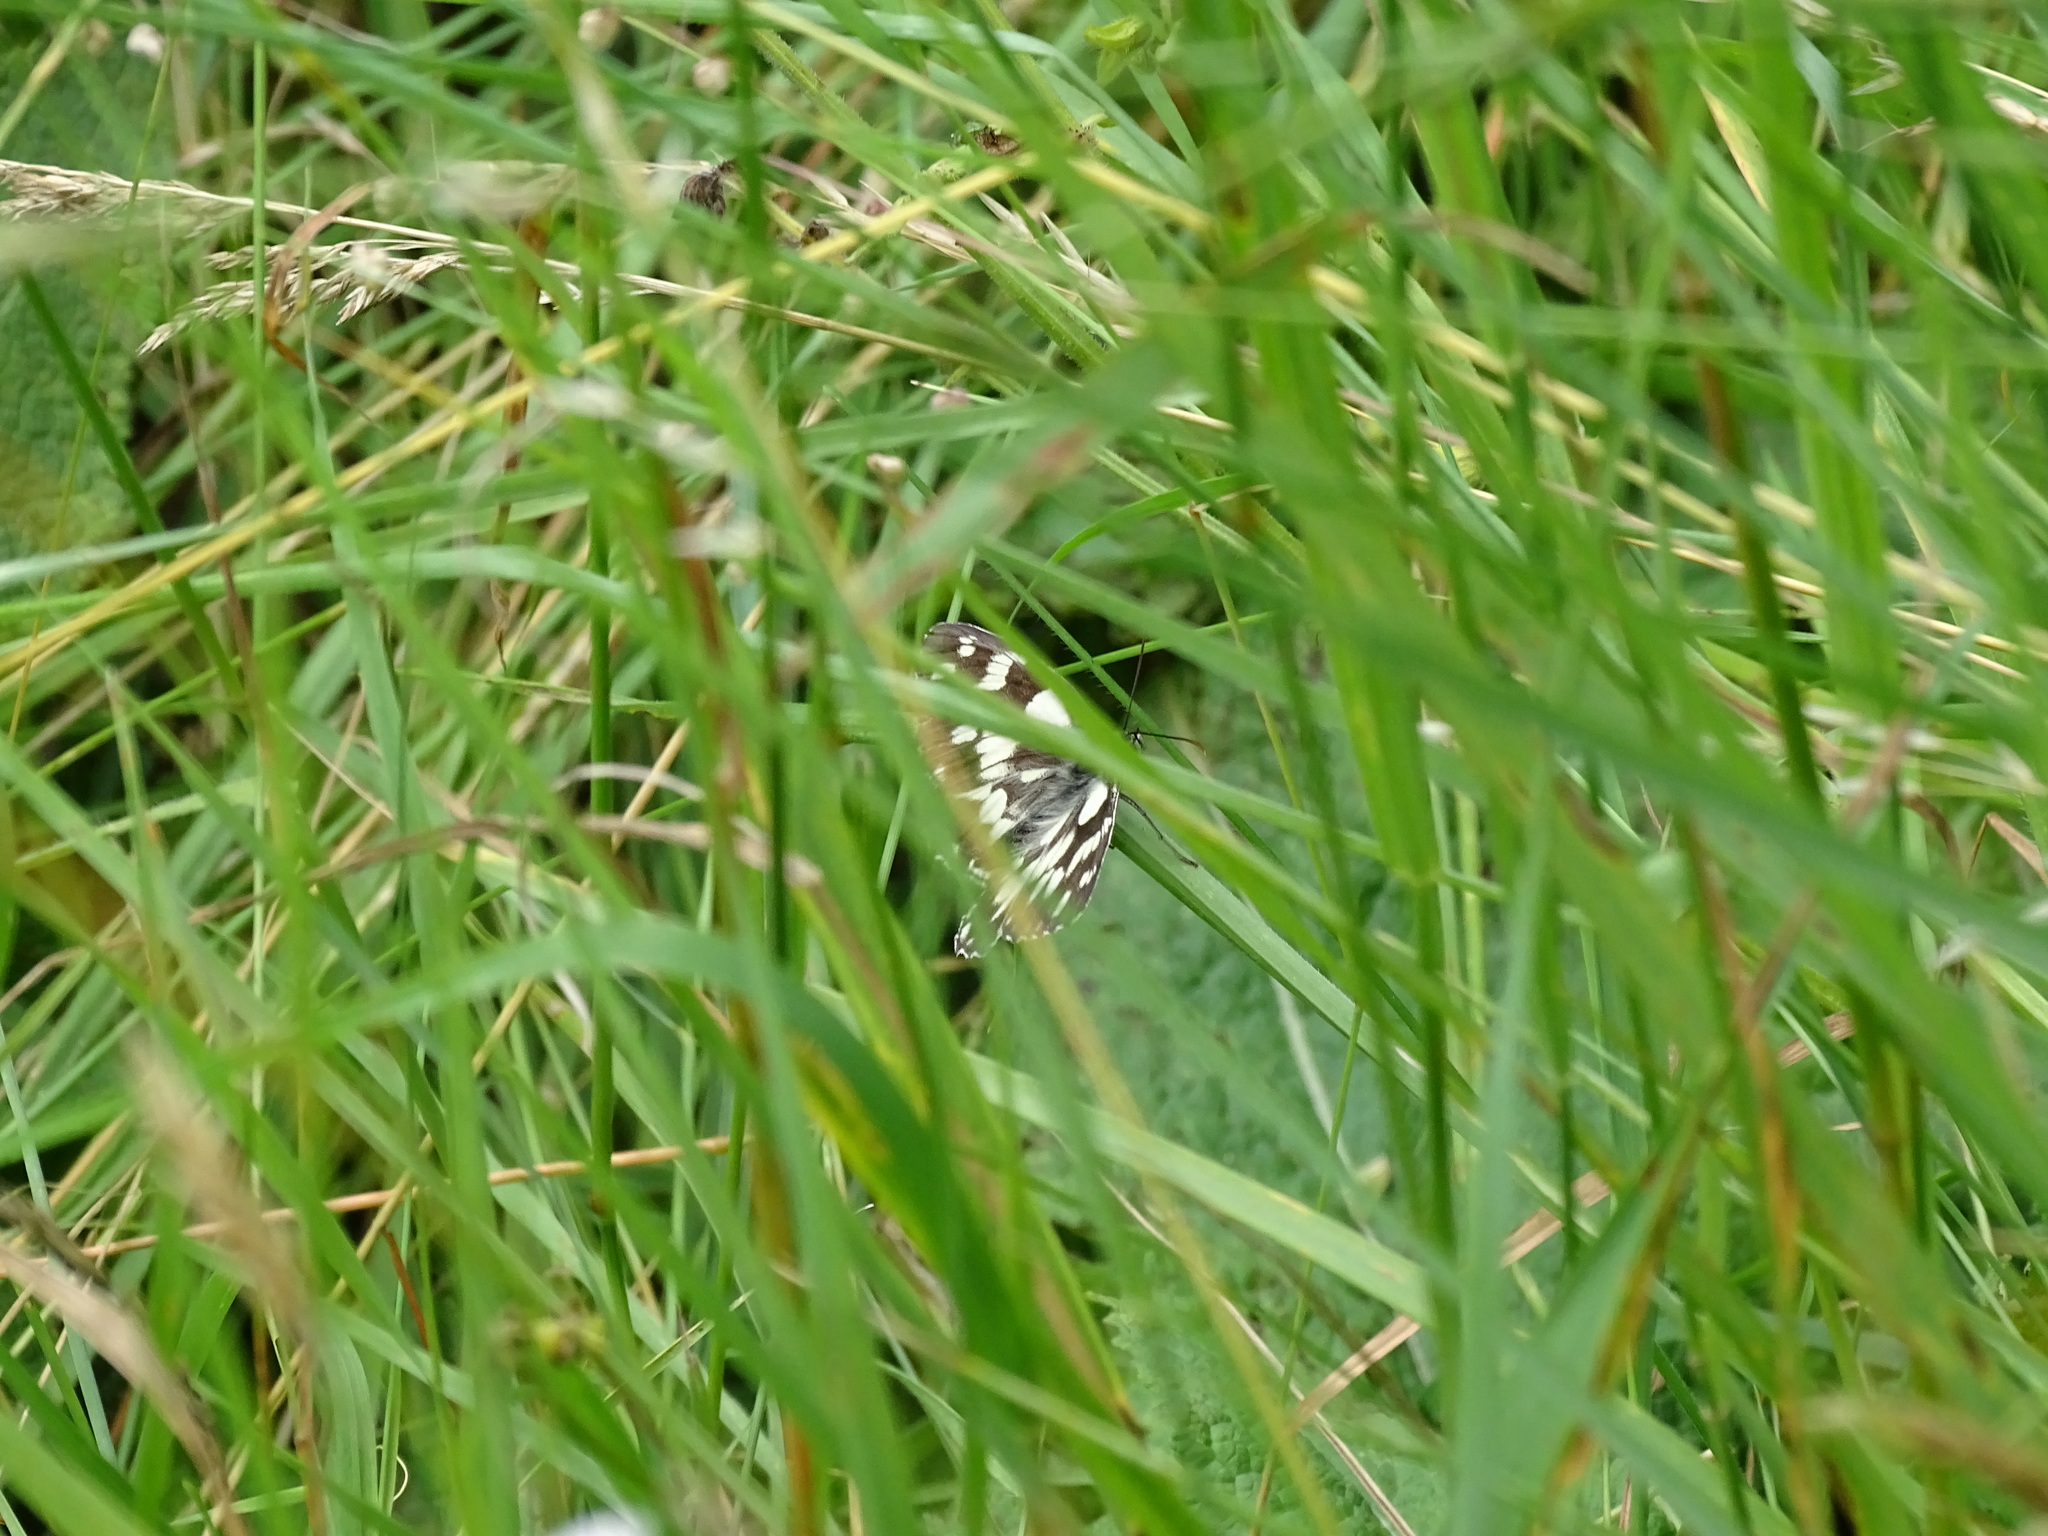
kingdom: Animalia
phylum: Arthropoda
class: Insecta
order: Lepidoptera
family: Nymphalidae
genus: Melanargia
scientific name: Melanargia galathea
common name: Marbled white
